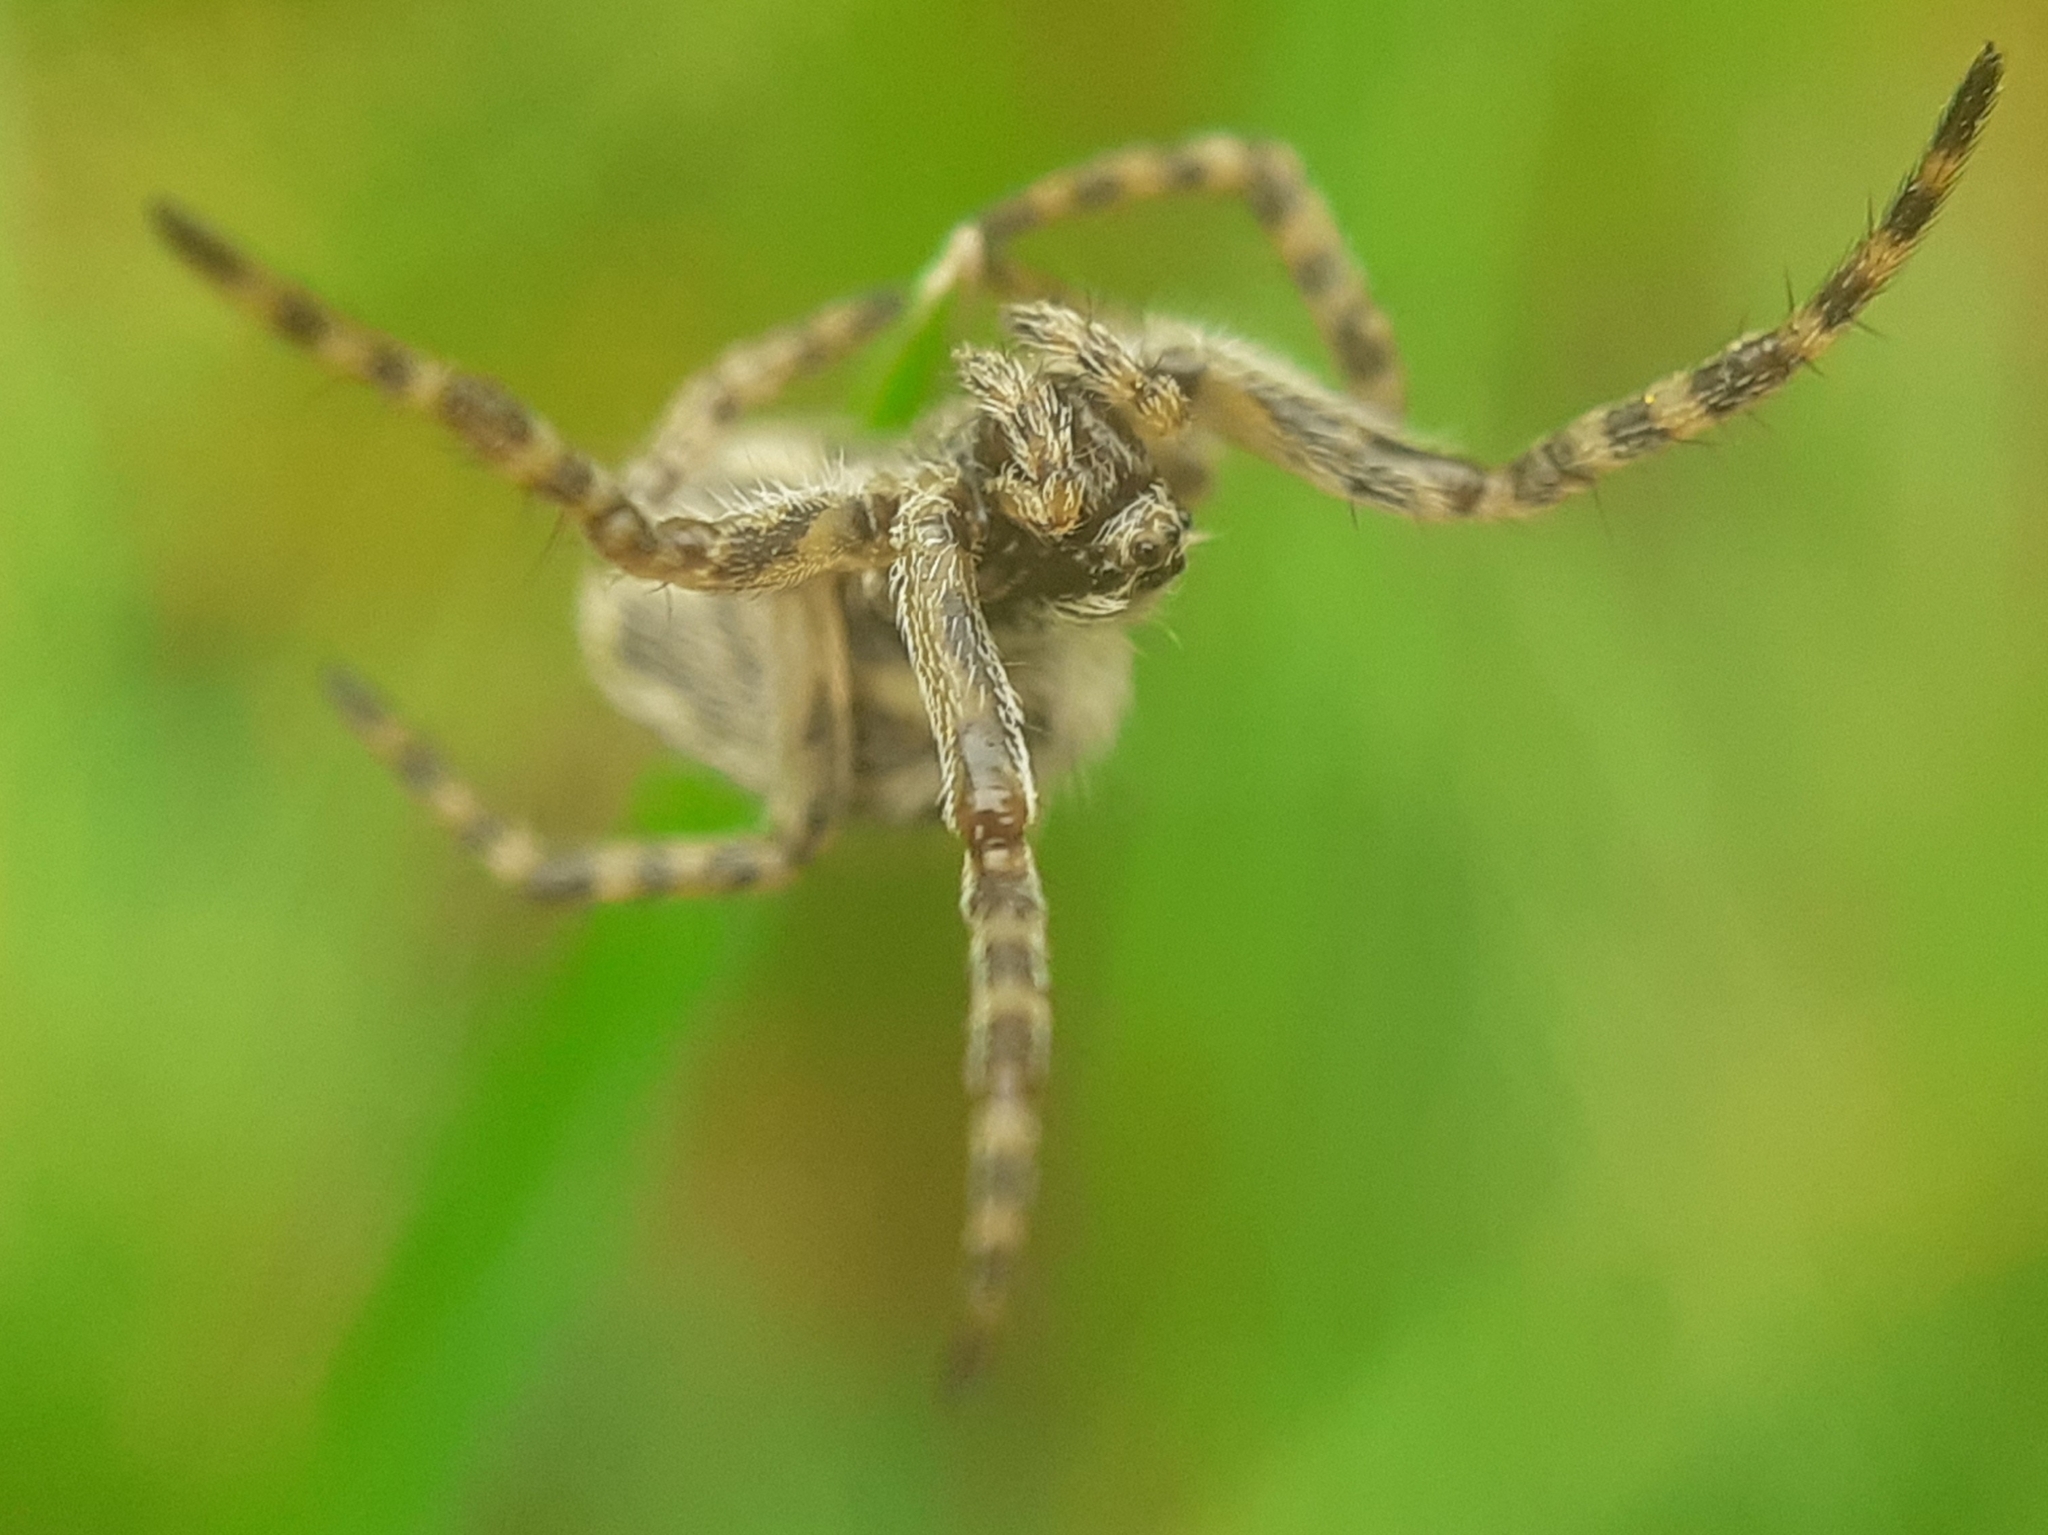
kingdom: Animalia
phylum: Arthropoda
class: Arachnida
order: Araneae
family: Araneidae
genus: Aculepeira
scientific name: Aculepeira ceropegia
